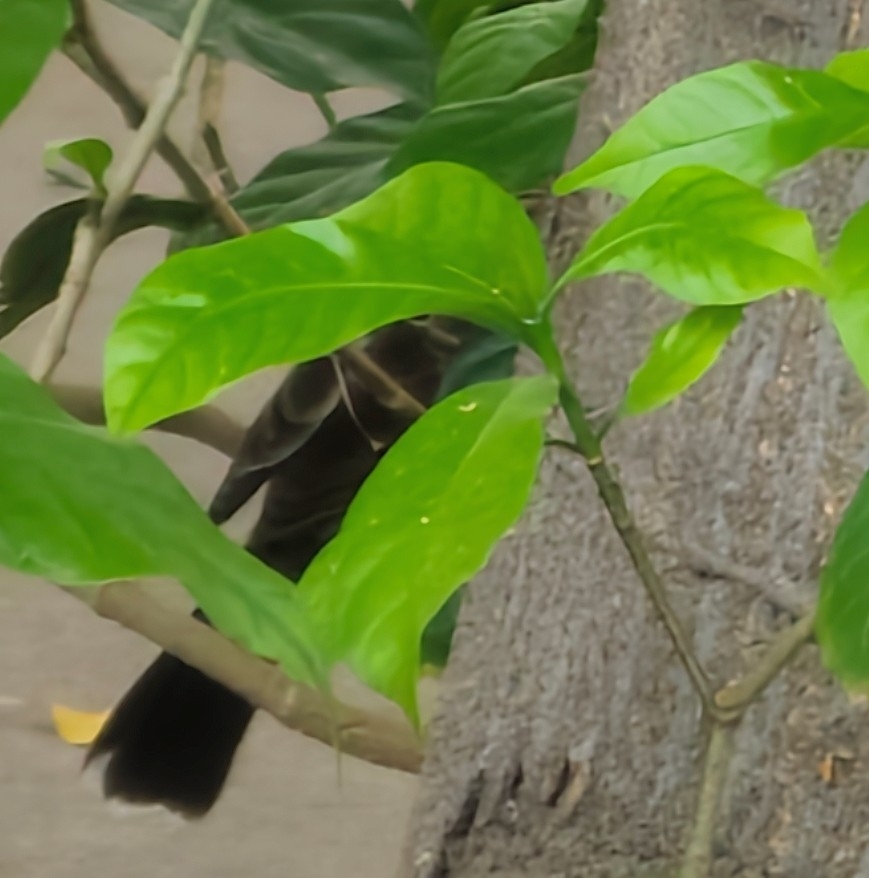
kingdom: Animalia
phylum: Chordata
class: Aves
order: Passeriformes
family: Pycnonotidae
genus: Pycnonotus
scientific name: Pycnonotus cafer
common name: Red-vented bulbul
